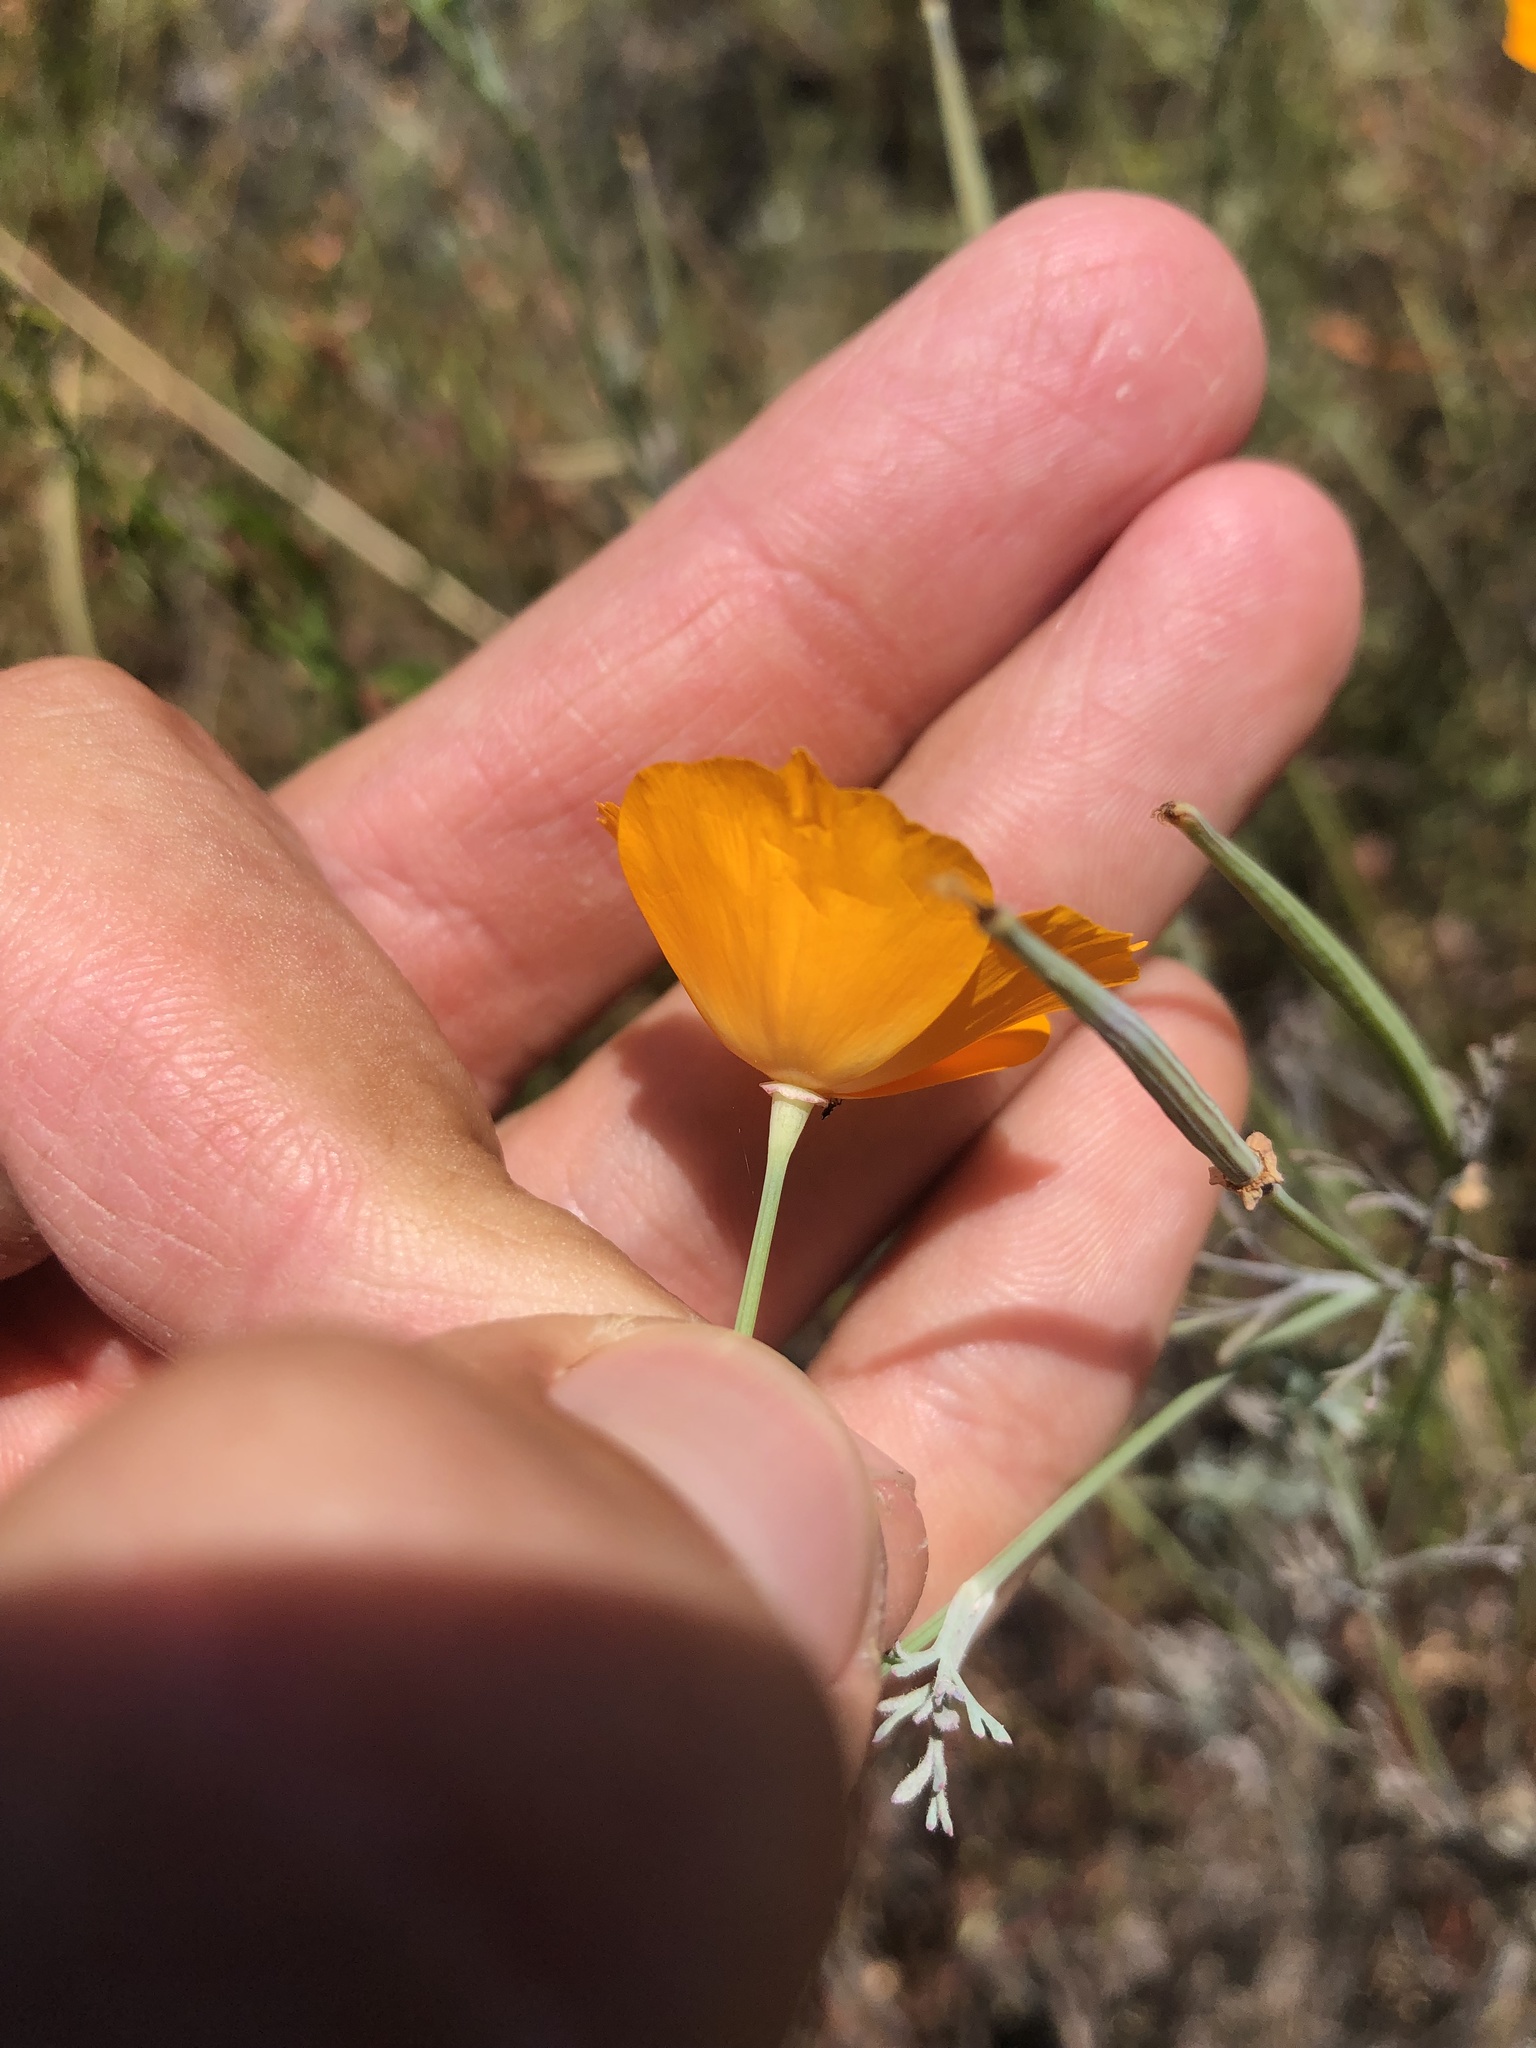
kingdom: Plantae
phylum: Tracheophyta
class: Magnoliopsida
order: Ranunculales
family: Papaveraceae
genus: Eschscholzia
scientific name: Eschscholzia californica
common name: California poppy
